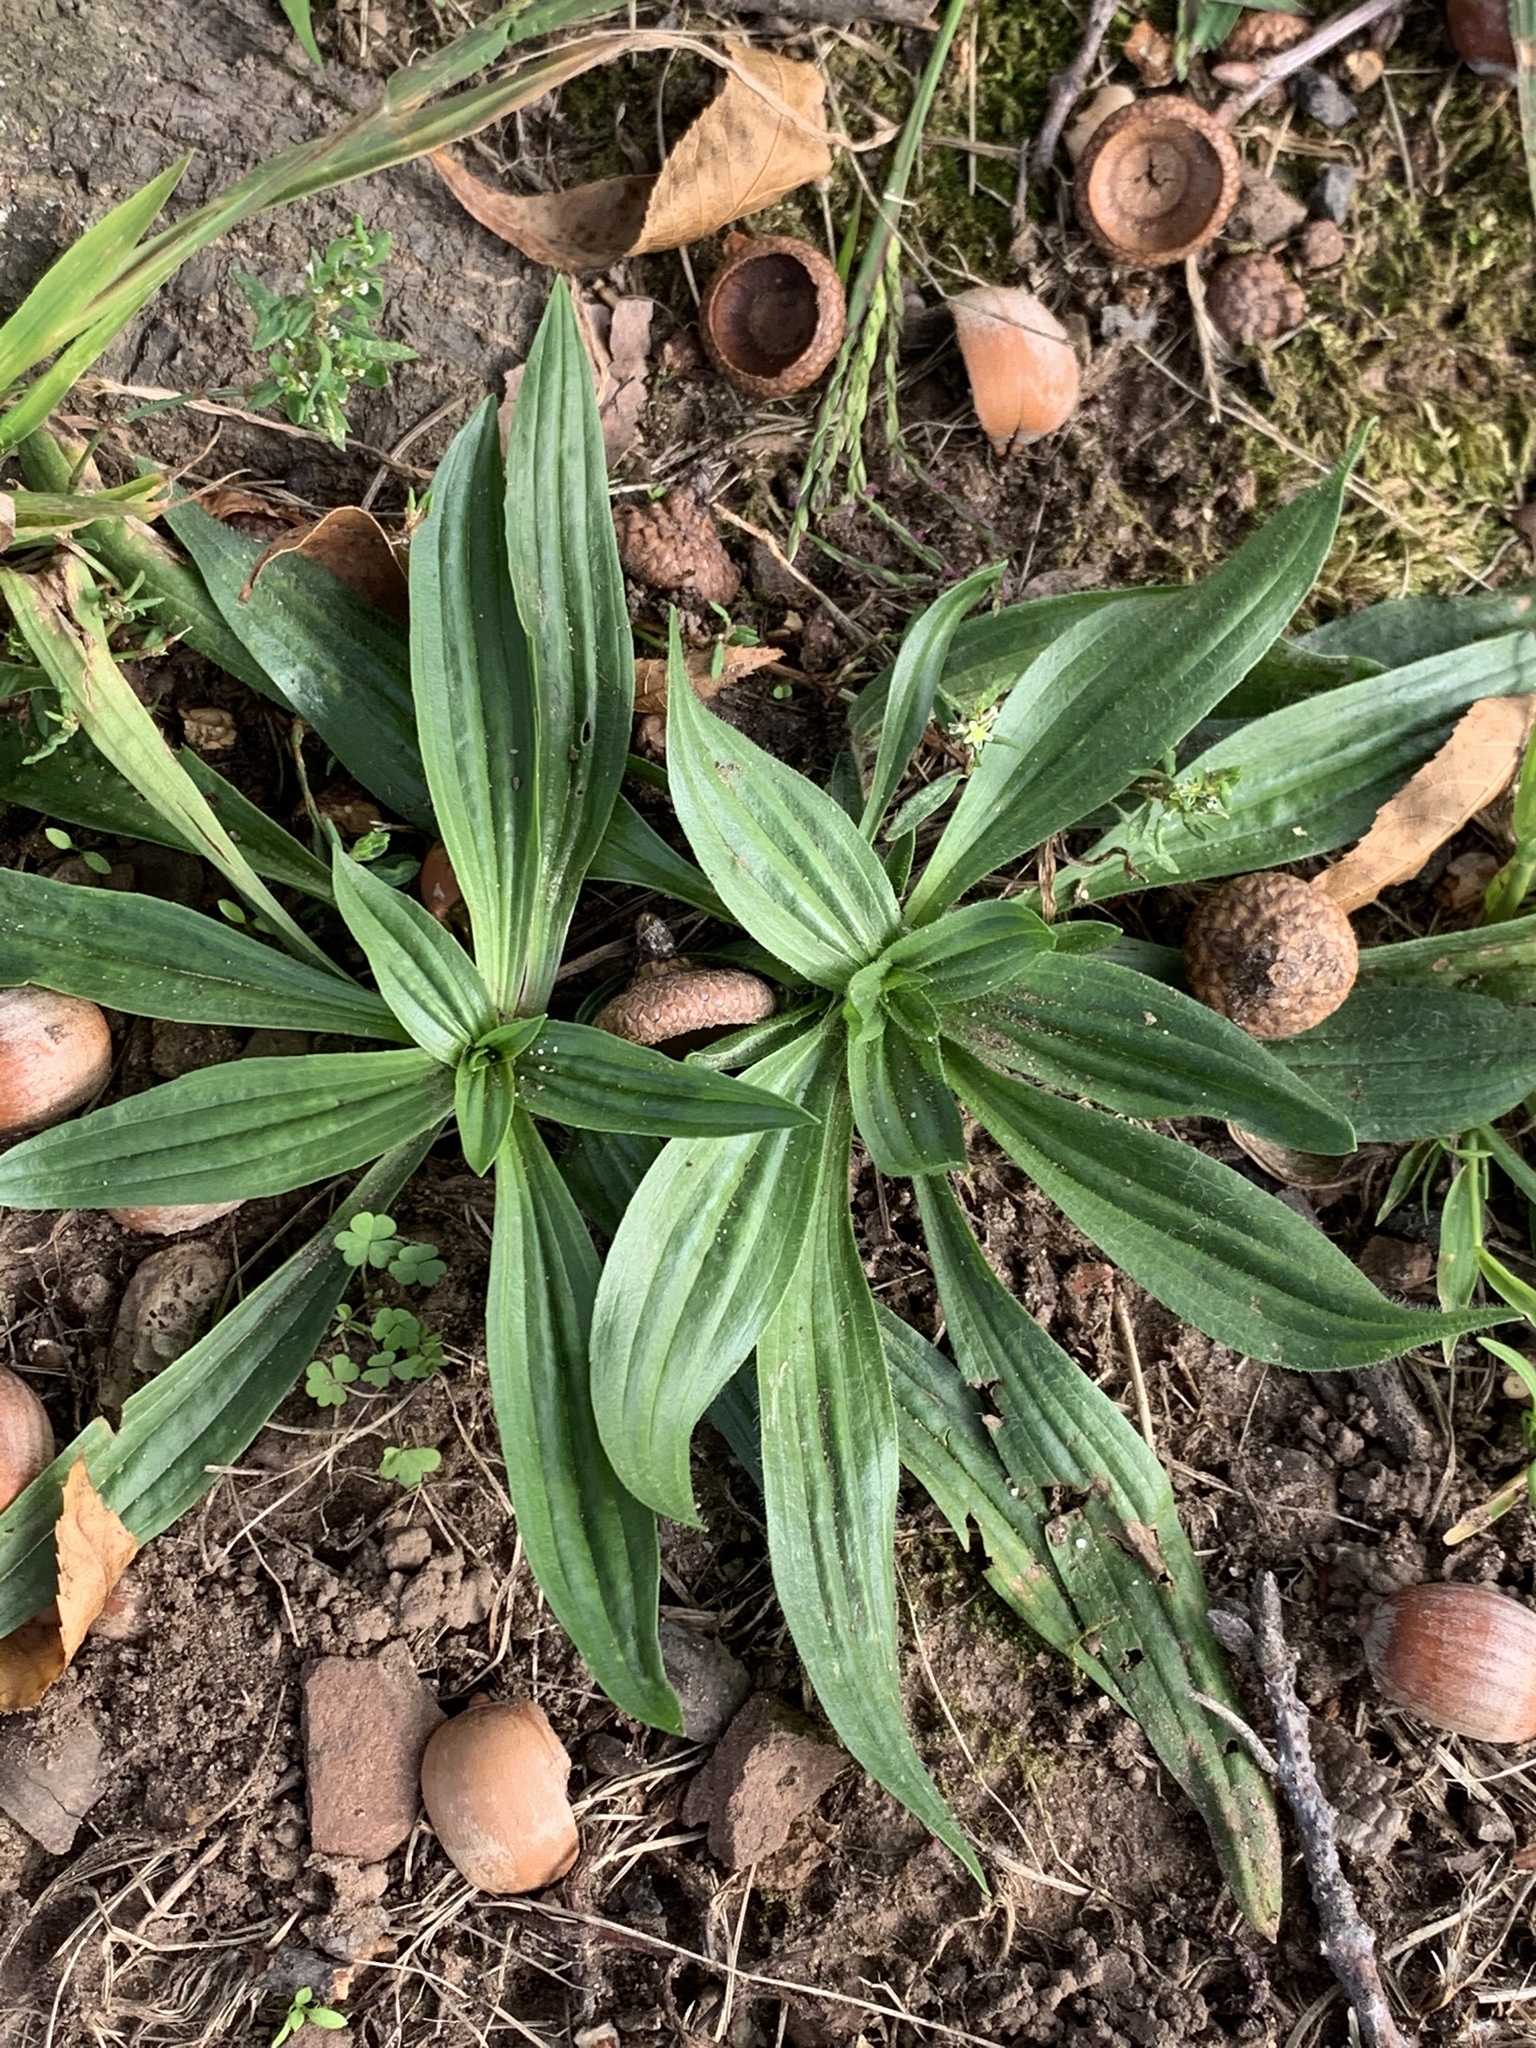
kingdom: Plantae
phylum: Tracheophyta
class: Magnoliopsida
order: Lamiales
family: Plantaginaceae
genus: Plantago
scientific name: Plantago lanceolata
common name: Ribwort plantain
